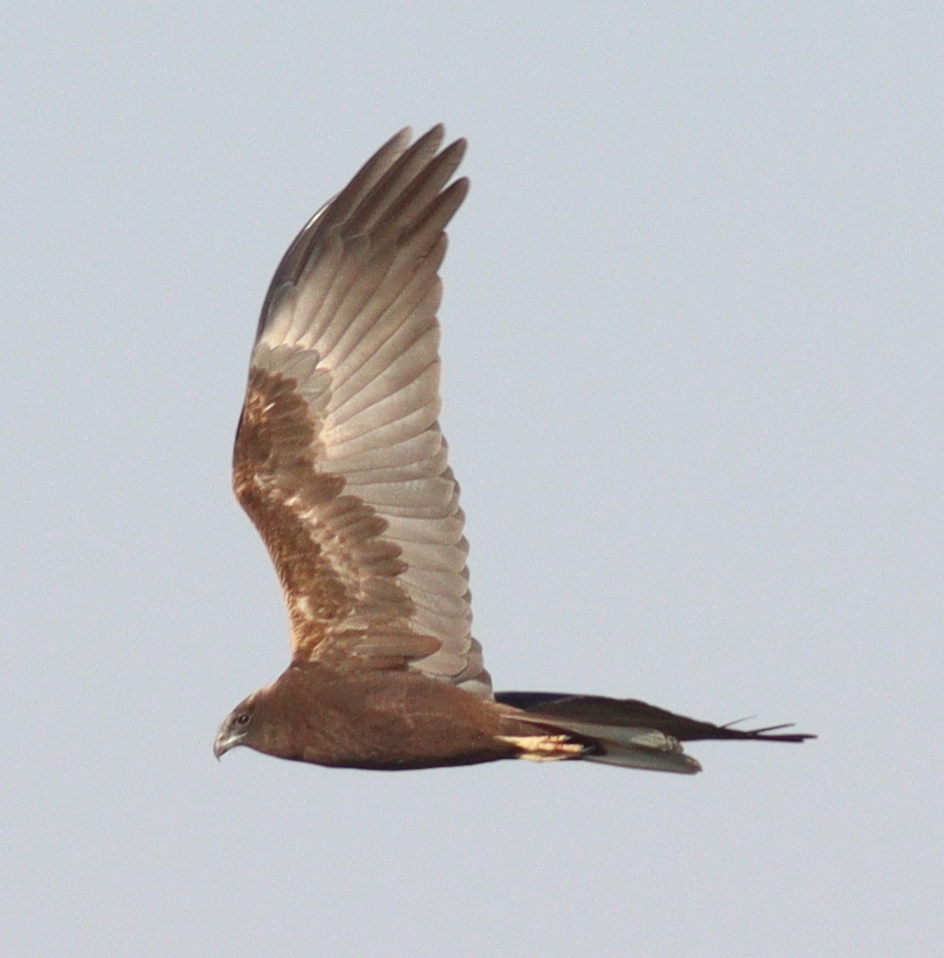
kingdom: Animalia
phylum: Chordata
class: Aves
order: Accipitriformes
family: Accipitridae
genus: Circus
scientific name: Circus aeruginosus
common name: Western marsh harrier
